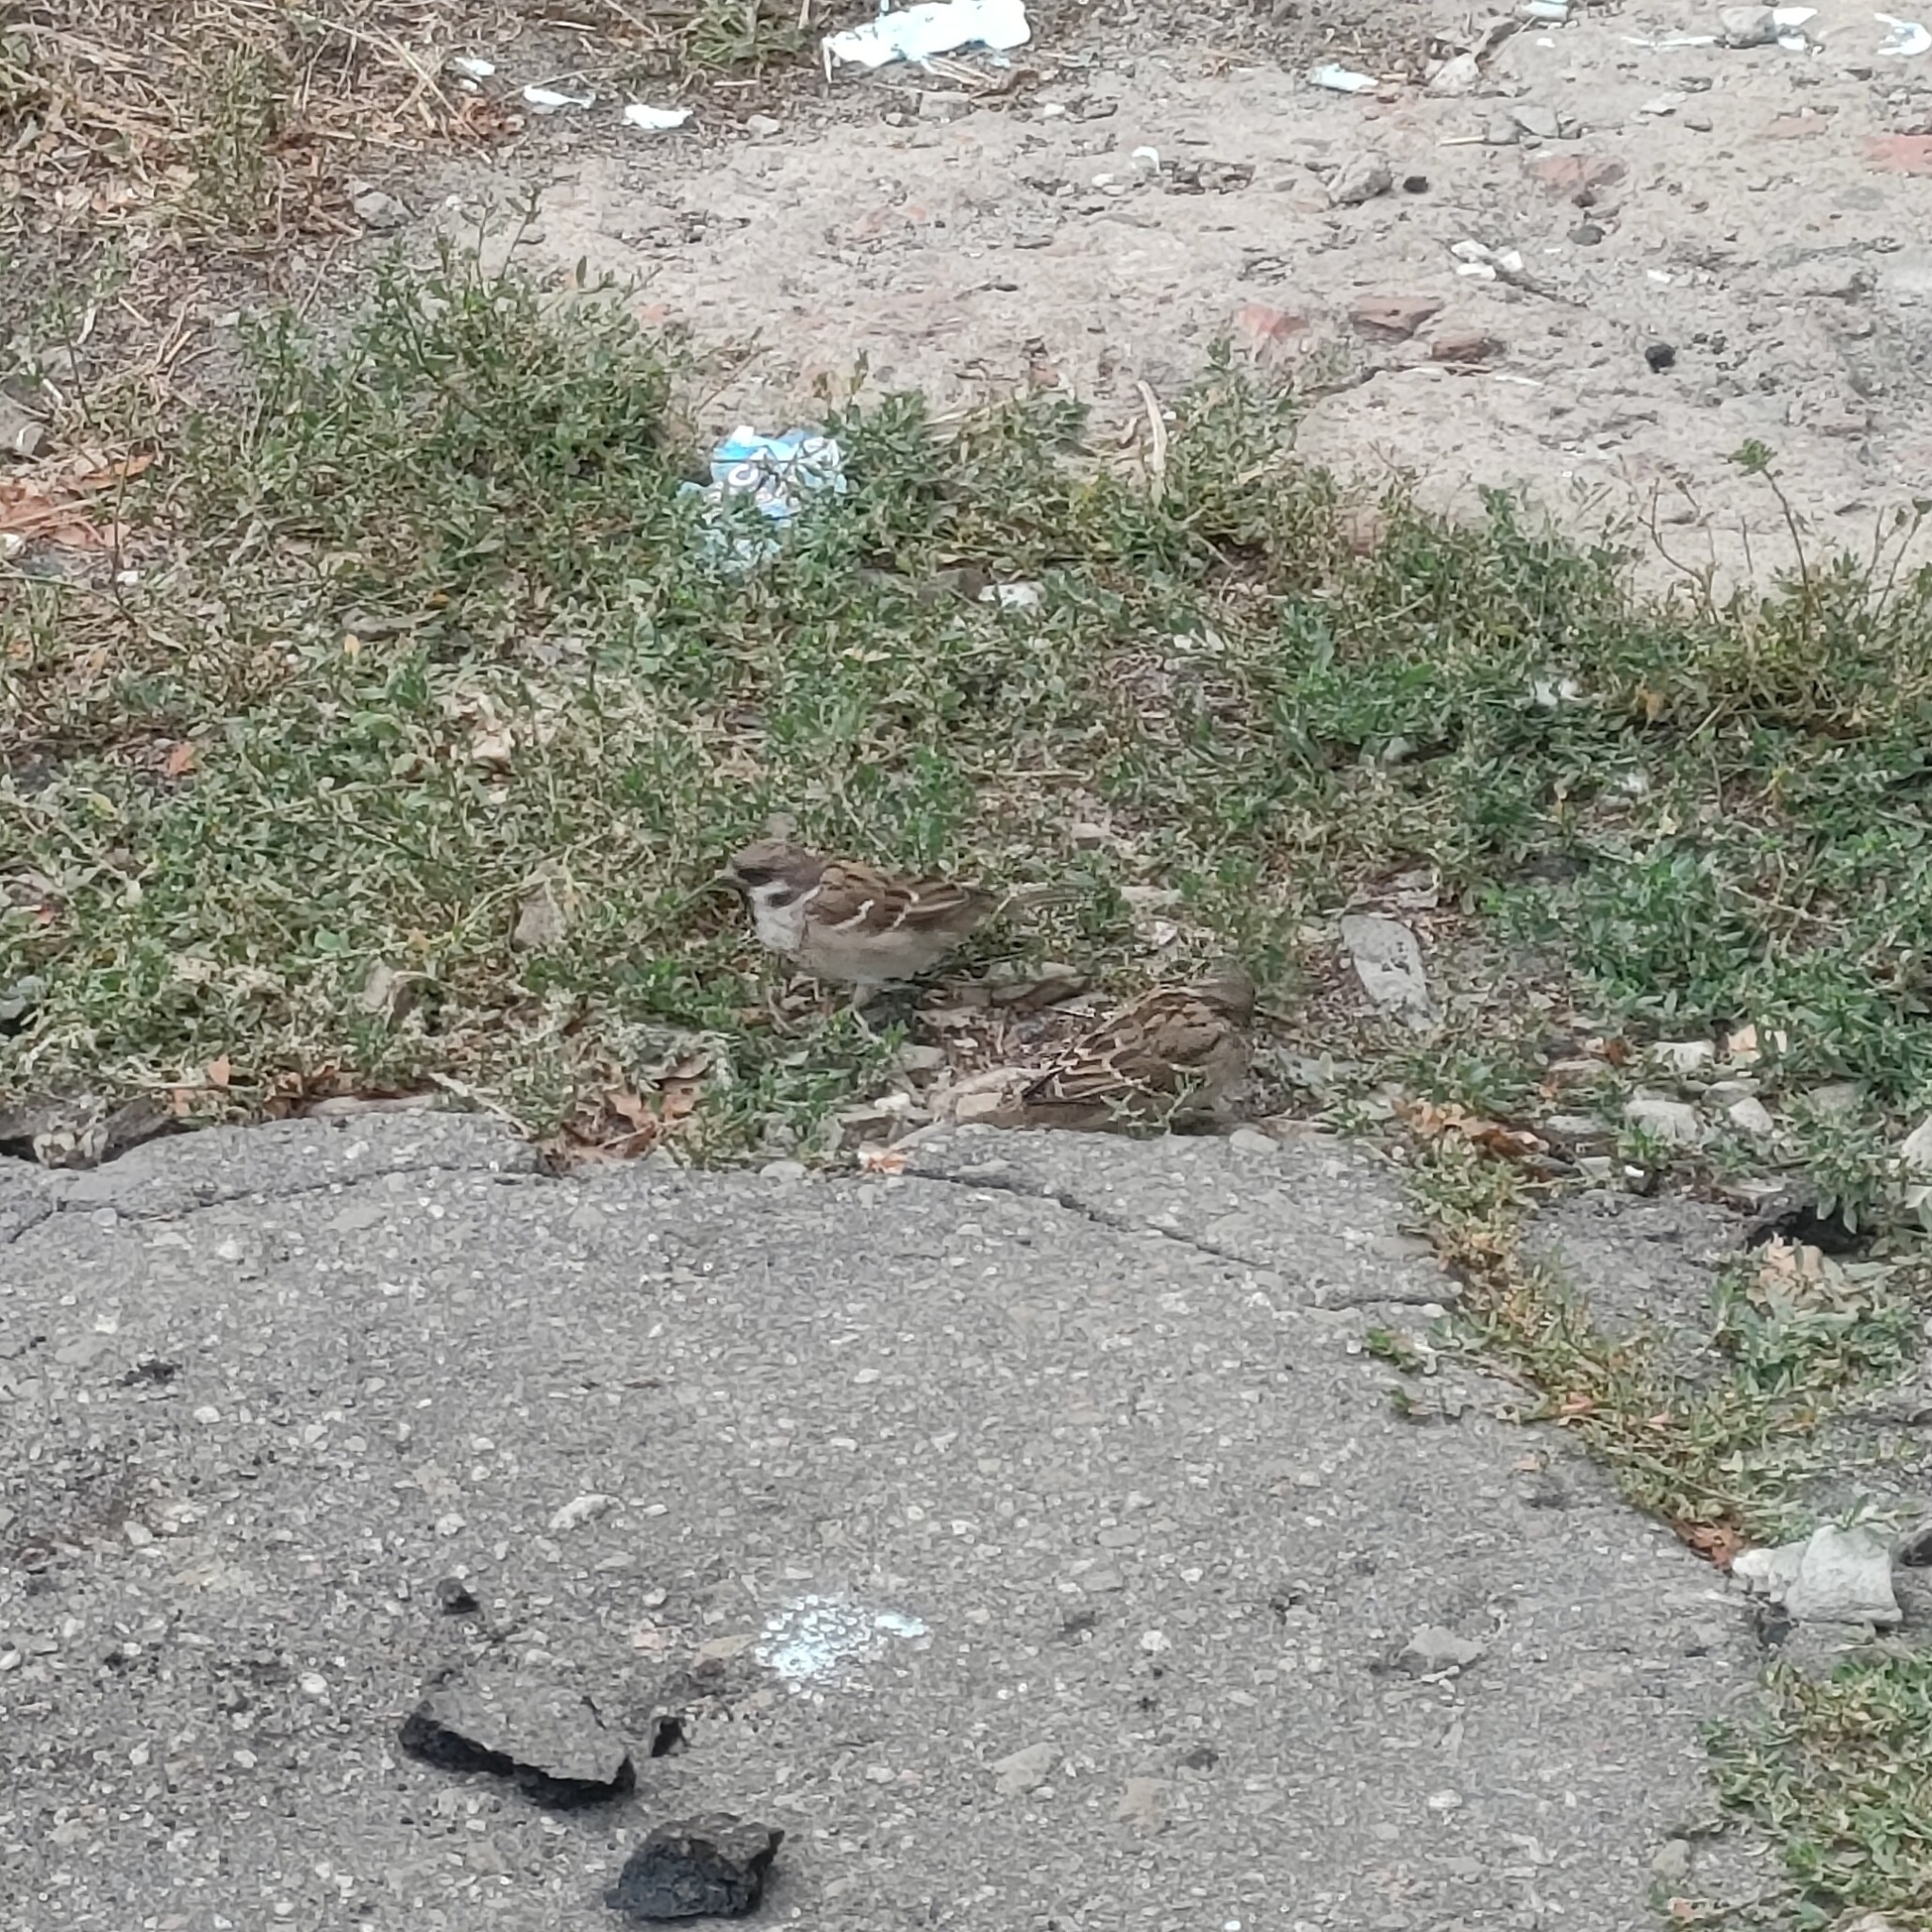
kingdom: Animalia
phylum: Chordata
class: Aves
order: Passeriformes
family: Passeridae
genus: Passer
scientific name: Passer montanus
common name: Eurasian tree sparrow
